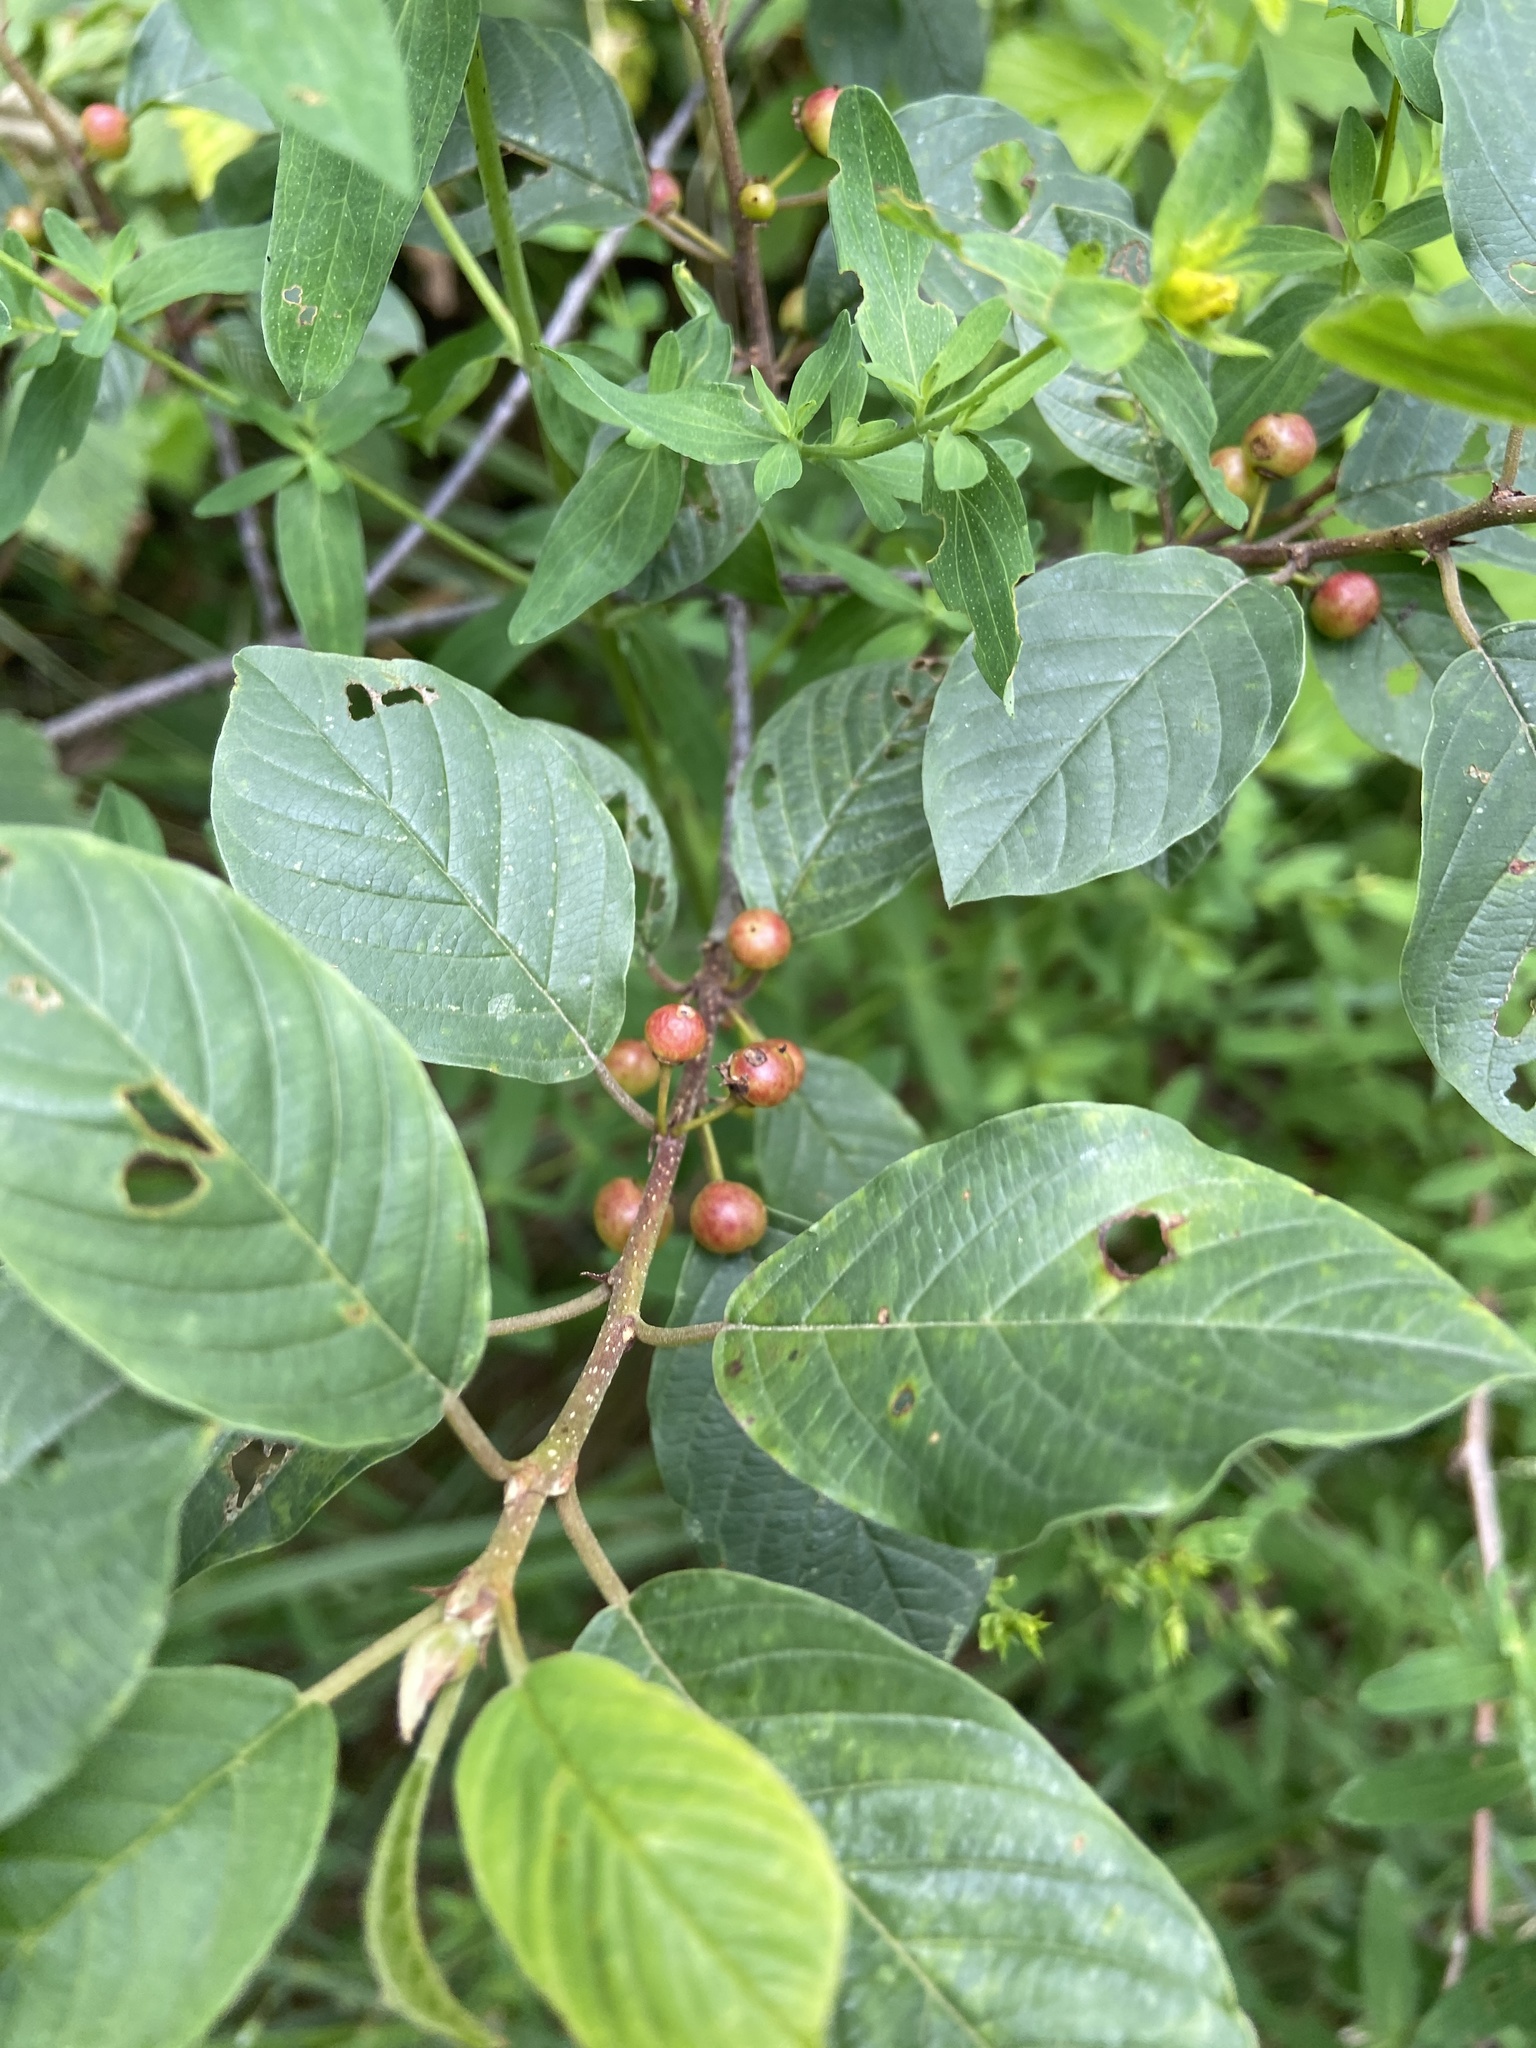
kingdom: Plantae
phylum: Tracheophyta
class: Magnoliopsida
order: Rosales
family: Rhamnaceae
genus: Frangula
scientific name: Frangula alnus
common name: Alder buckthorn
